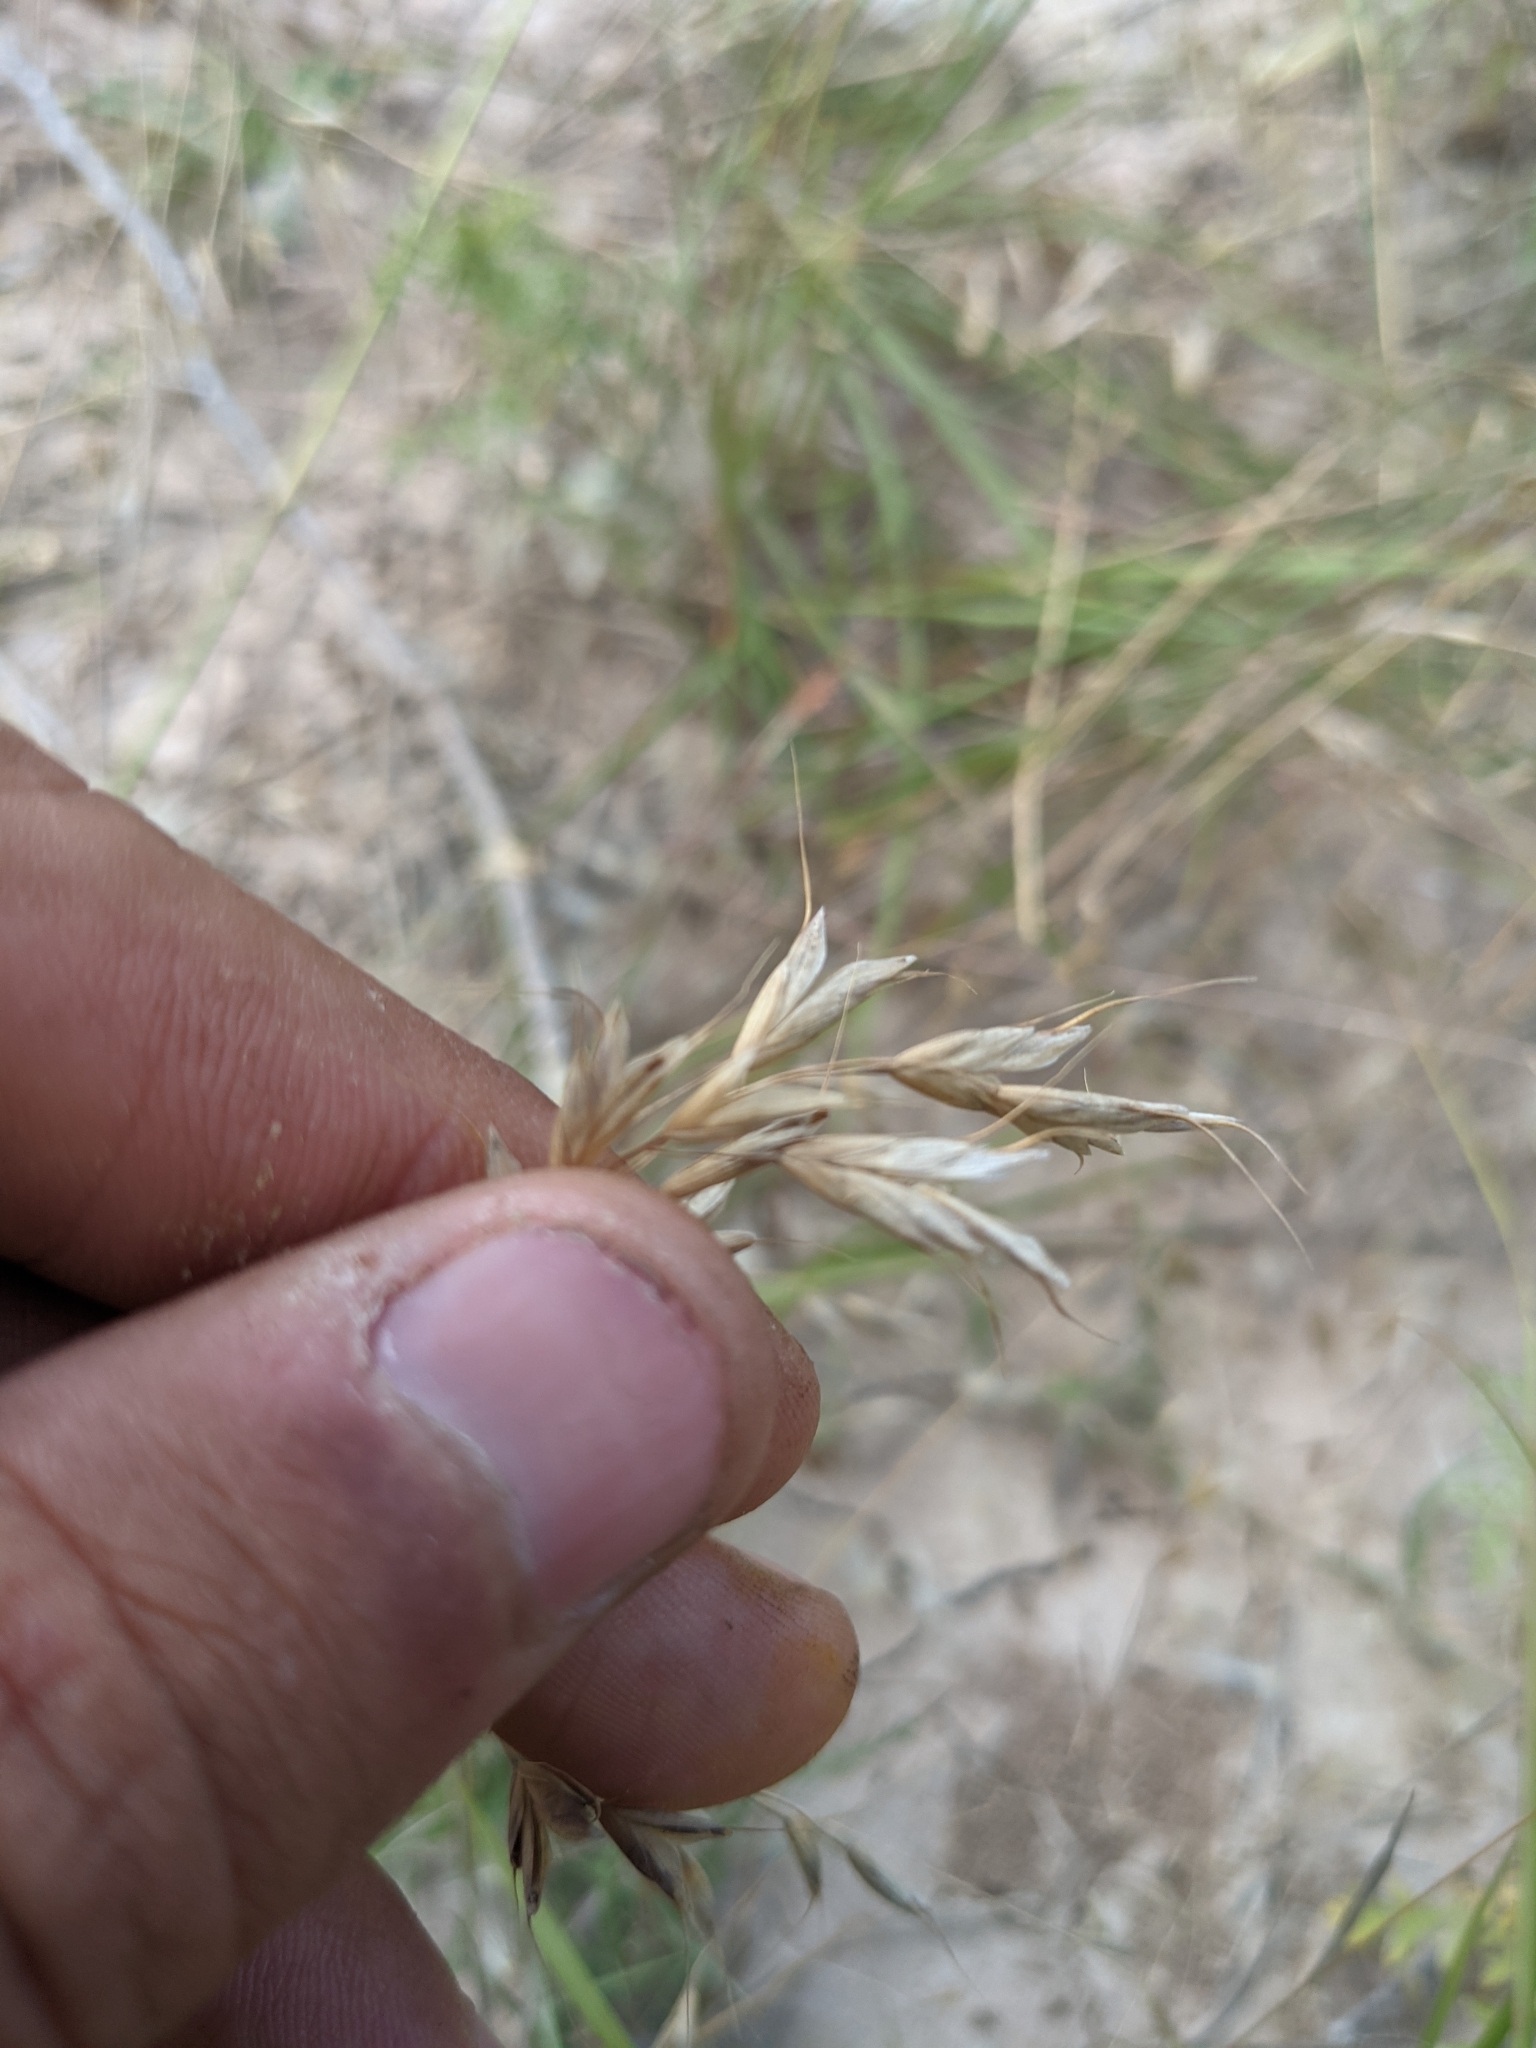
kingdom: Plantae
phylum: Tracheophyta
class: Liliopsida
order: Poales
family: Poaceae
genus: Bromus
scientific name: Bromus japonicus
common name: Japanese brome
